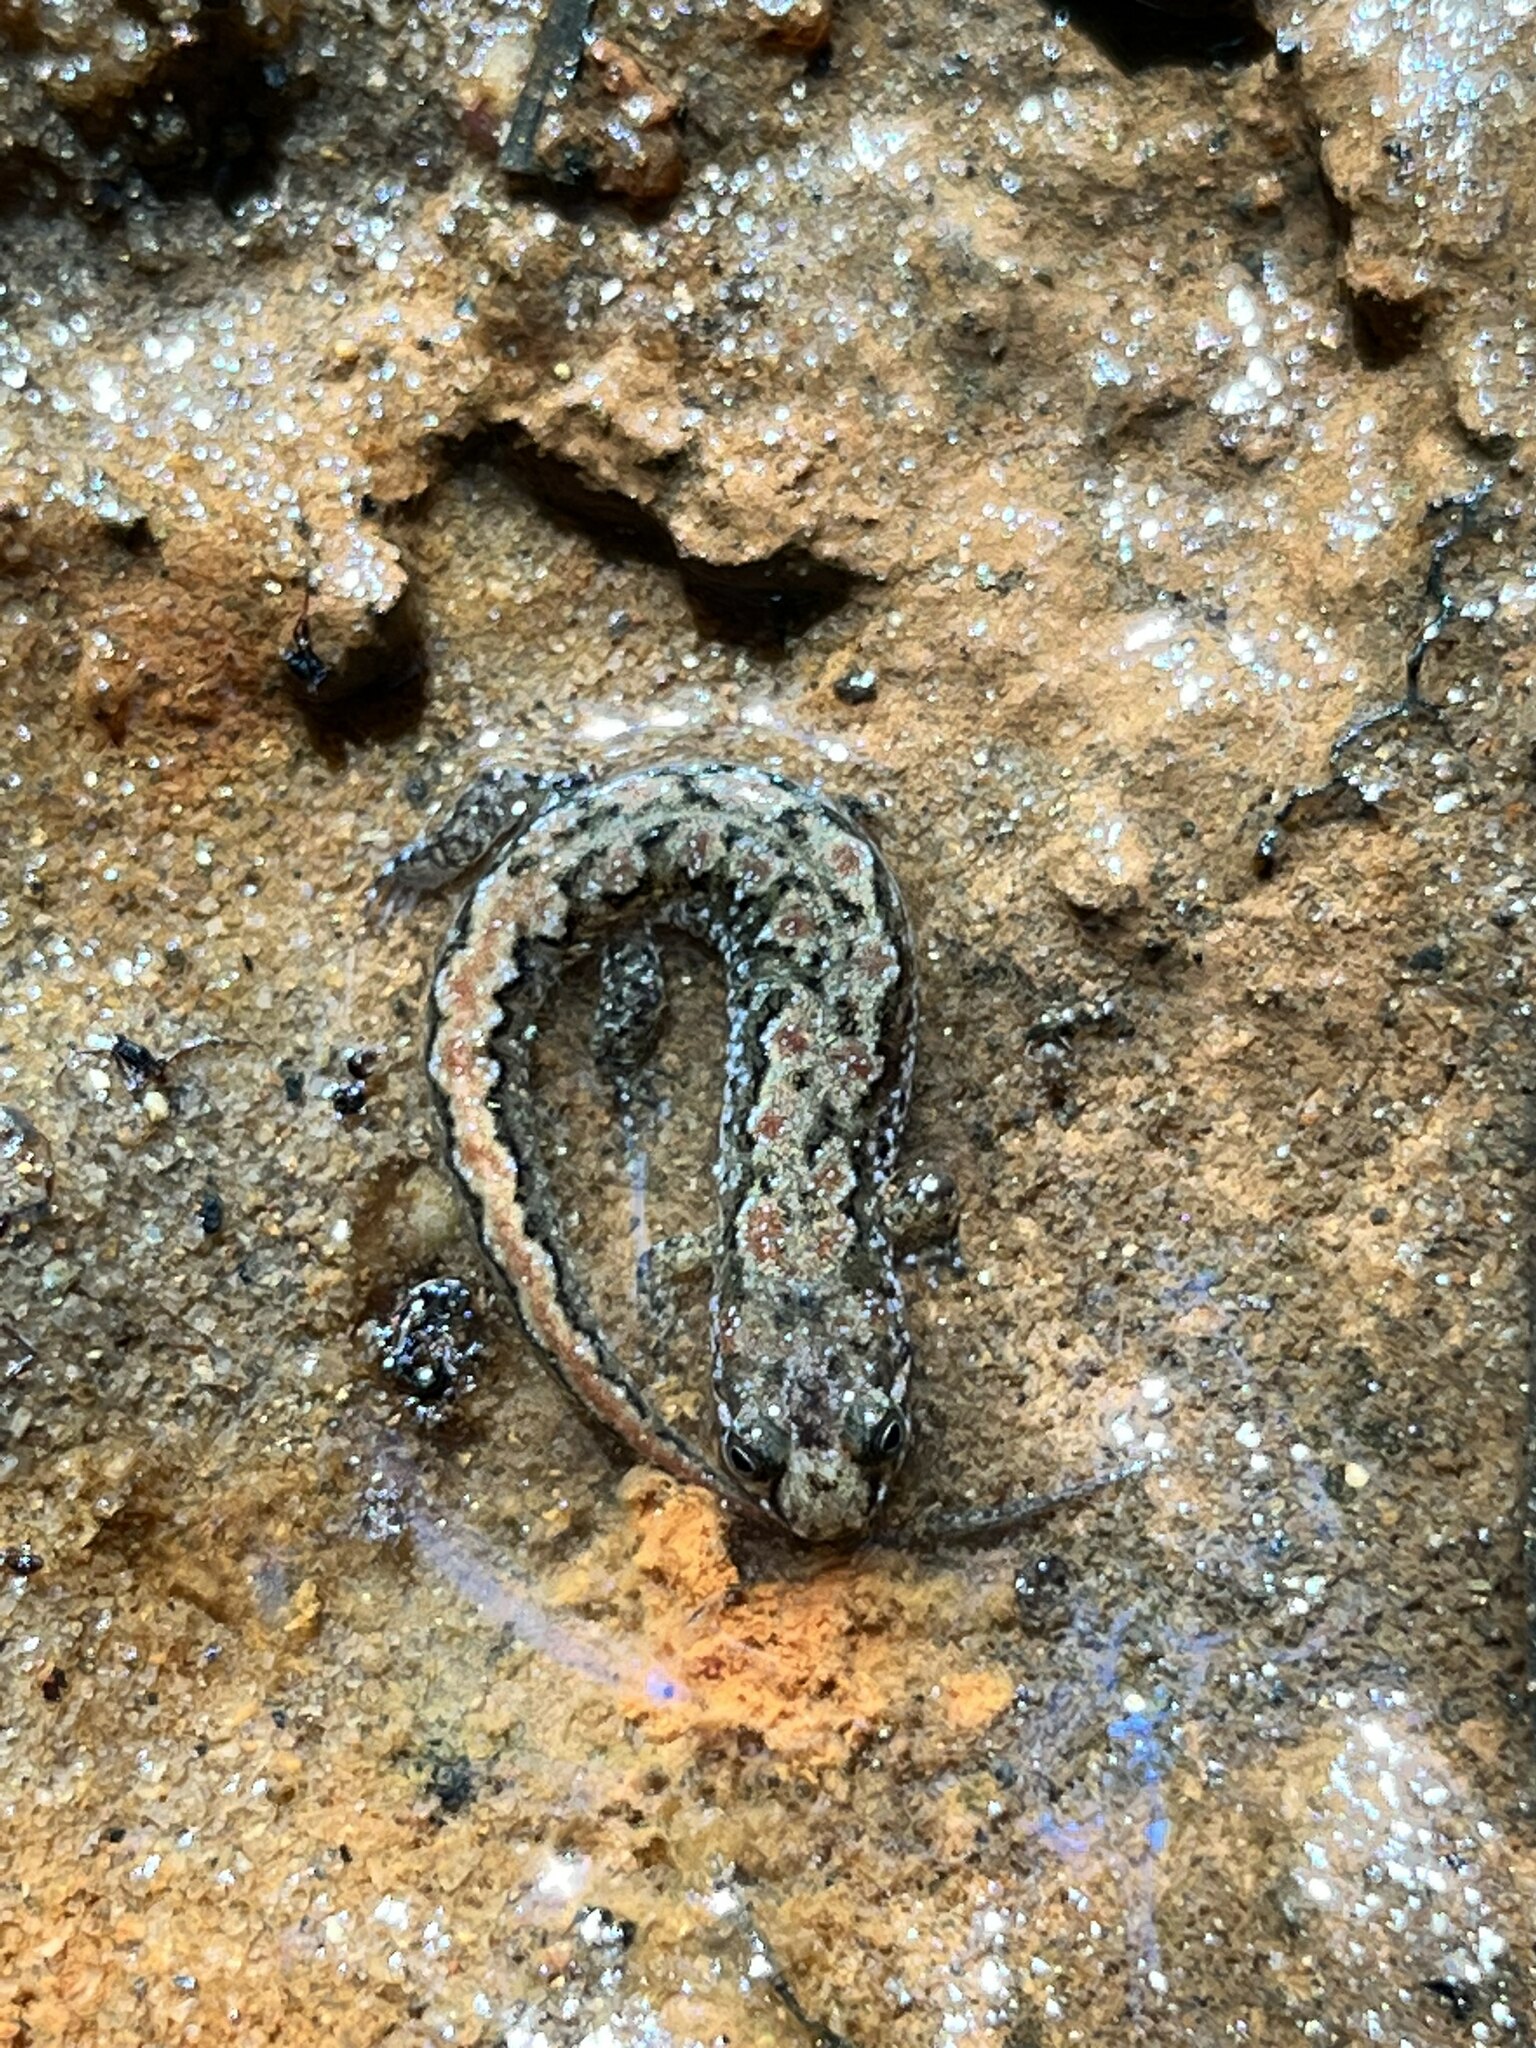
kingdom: Animalia
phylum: Chordata
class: Amphibia
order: Caudata
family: Plethodontidae
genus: Desmognathus
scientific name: Desmognathus conanti
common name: Spotted dusky salamander
